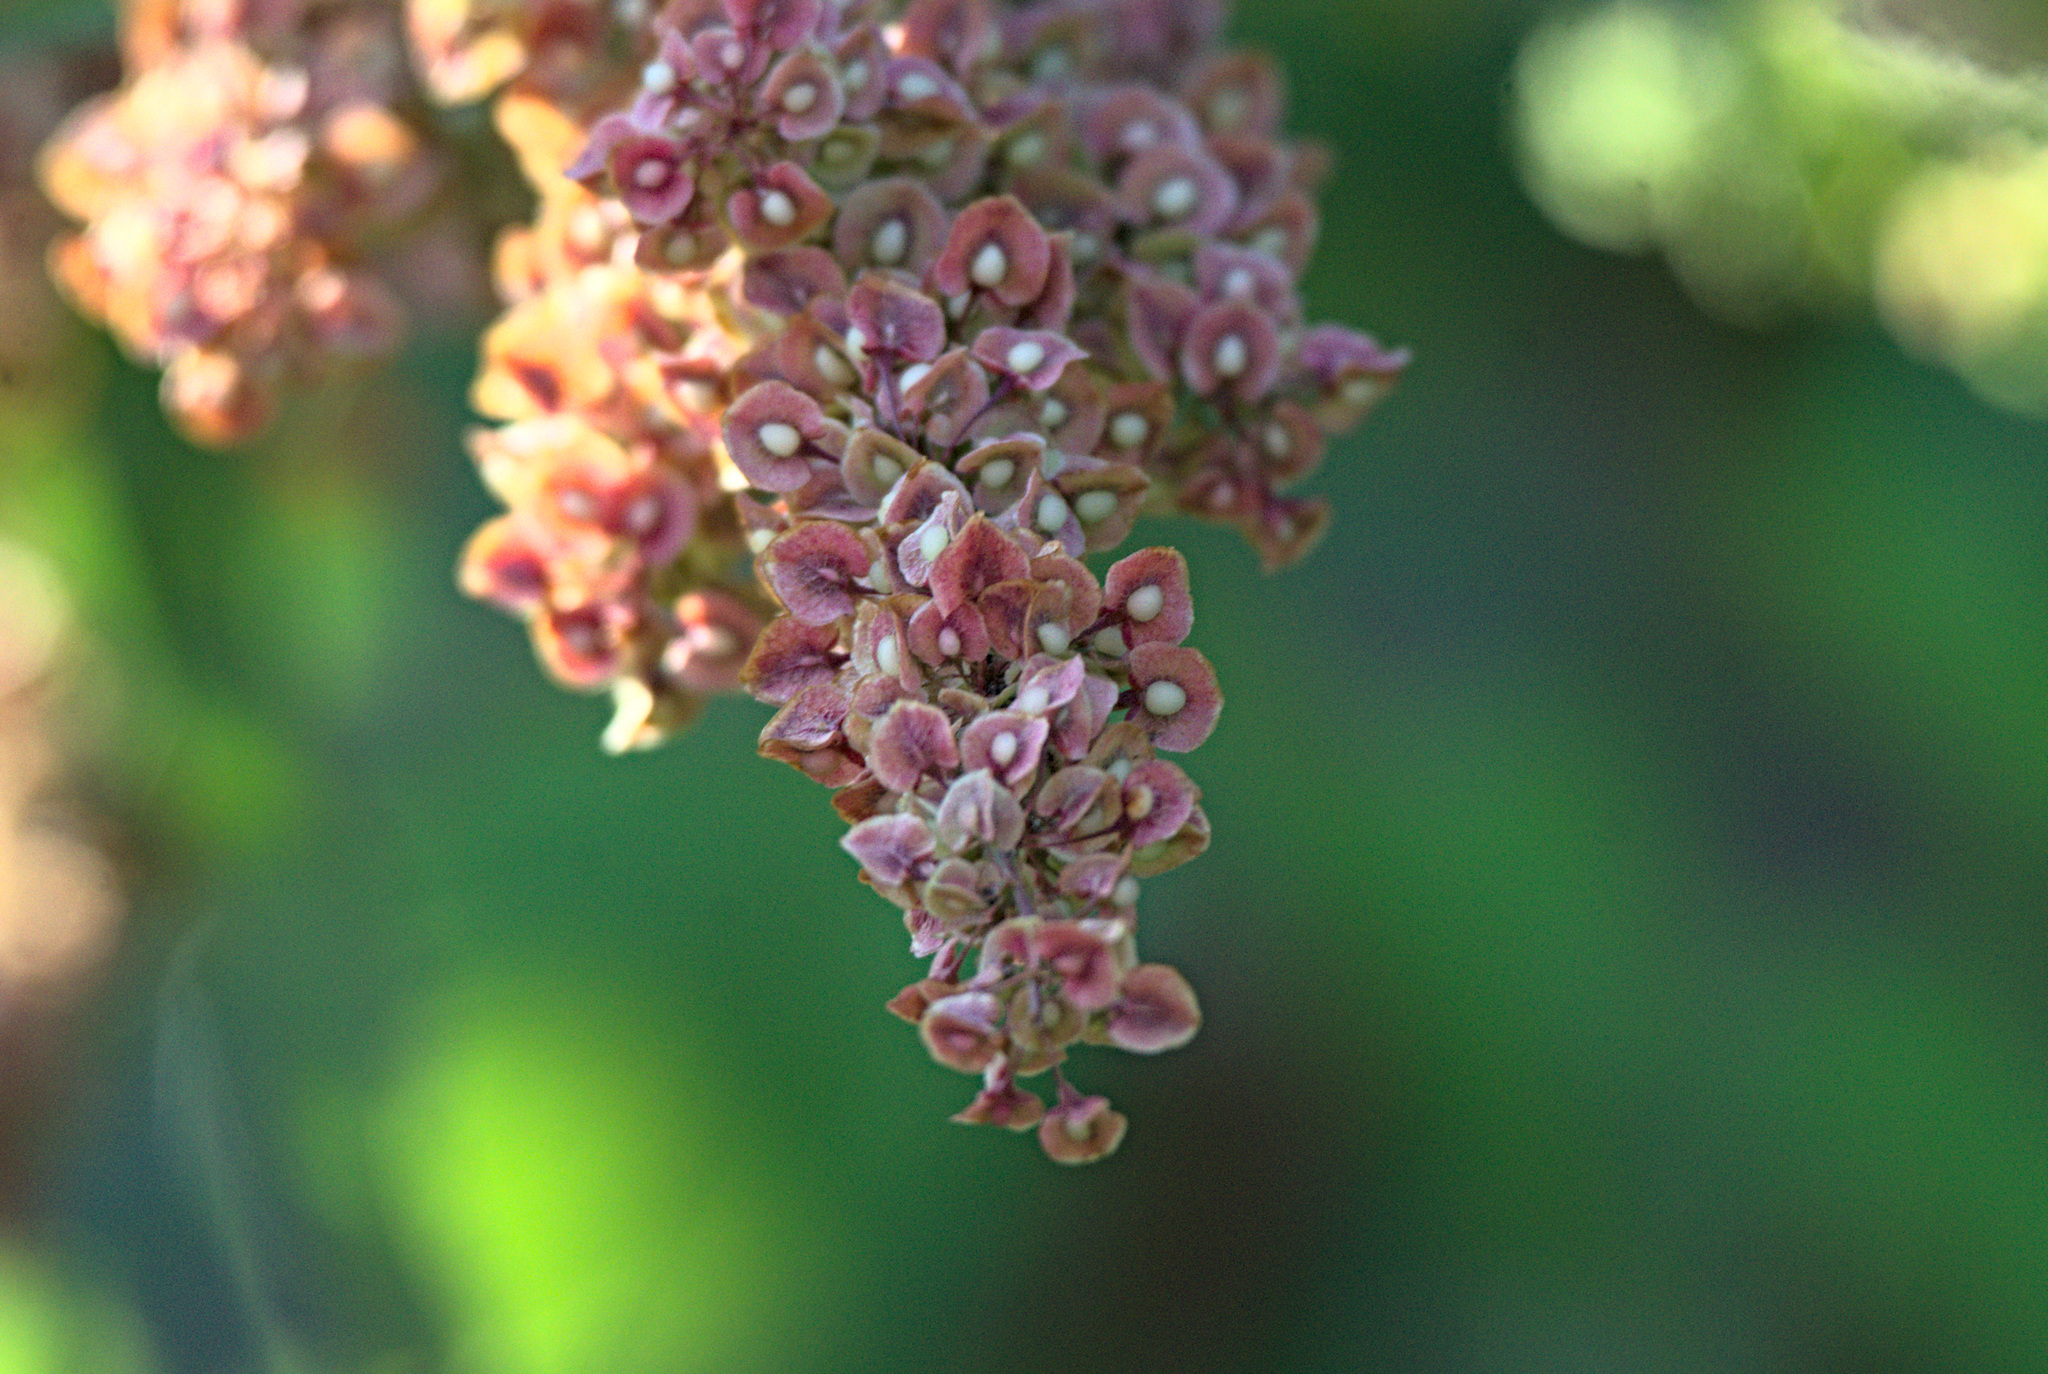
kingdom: Plantae
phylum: Tracheophyta
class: Magnoliopsida
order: Caryophyllales
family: Polygonaceae
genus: Rumex
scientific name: Rumex crispus
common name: Curled dock
